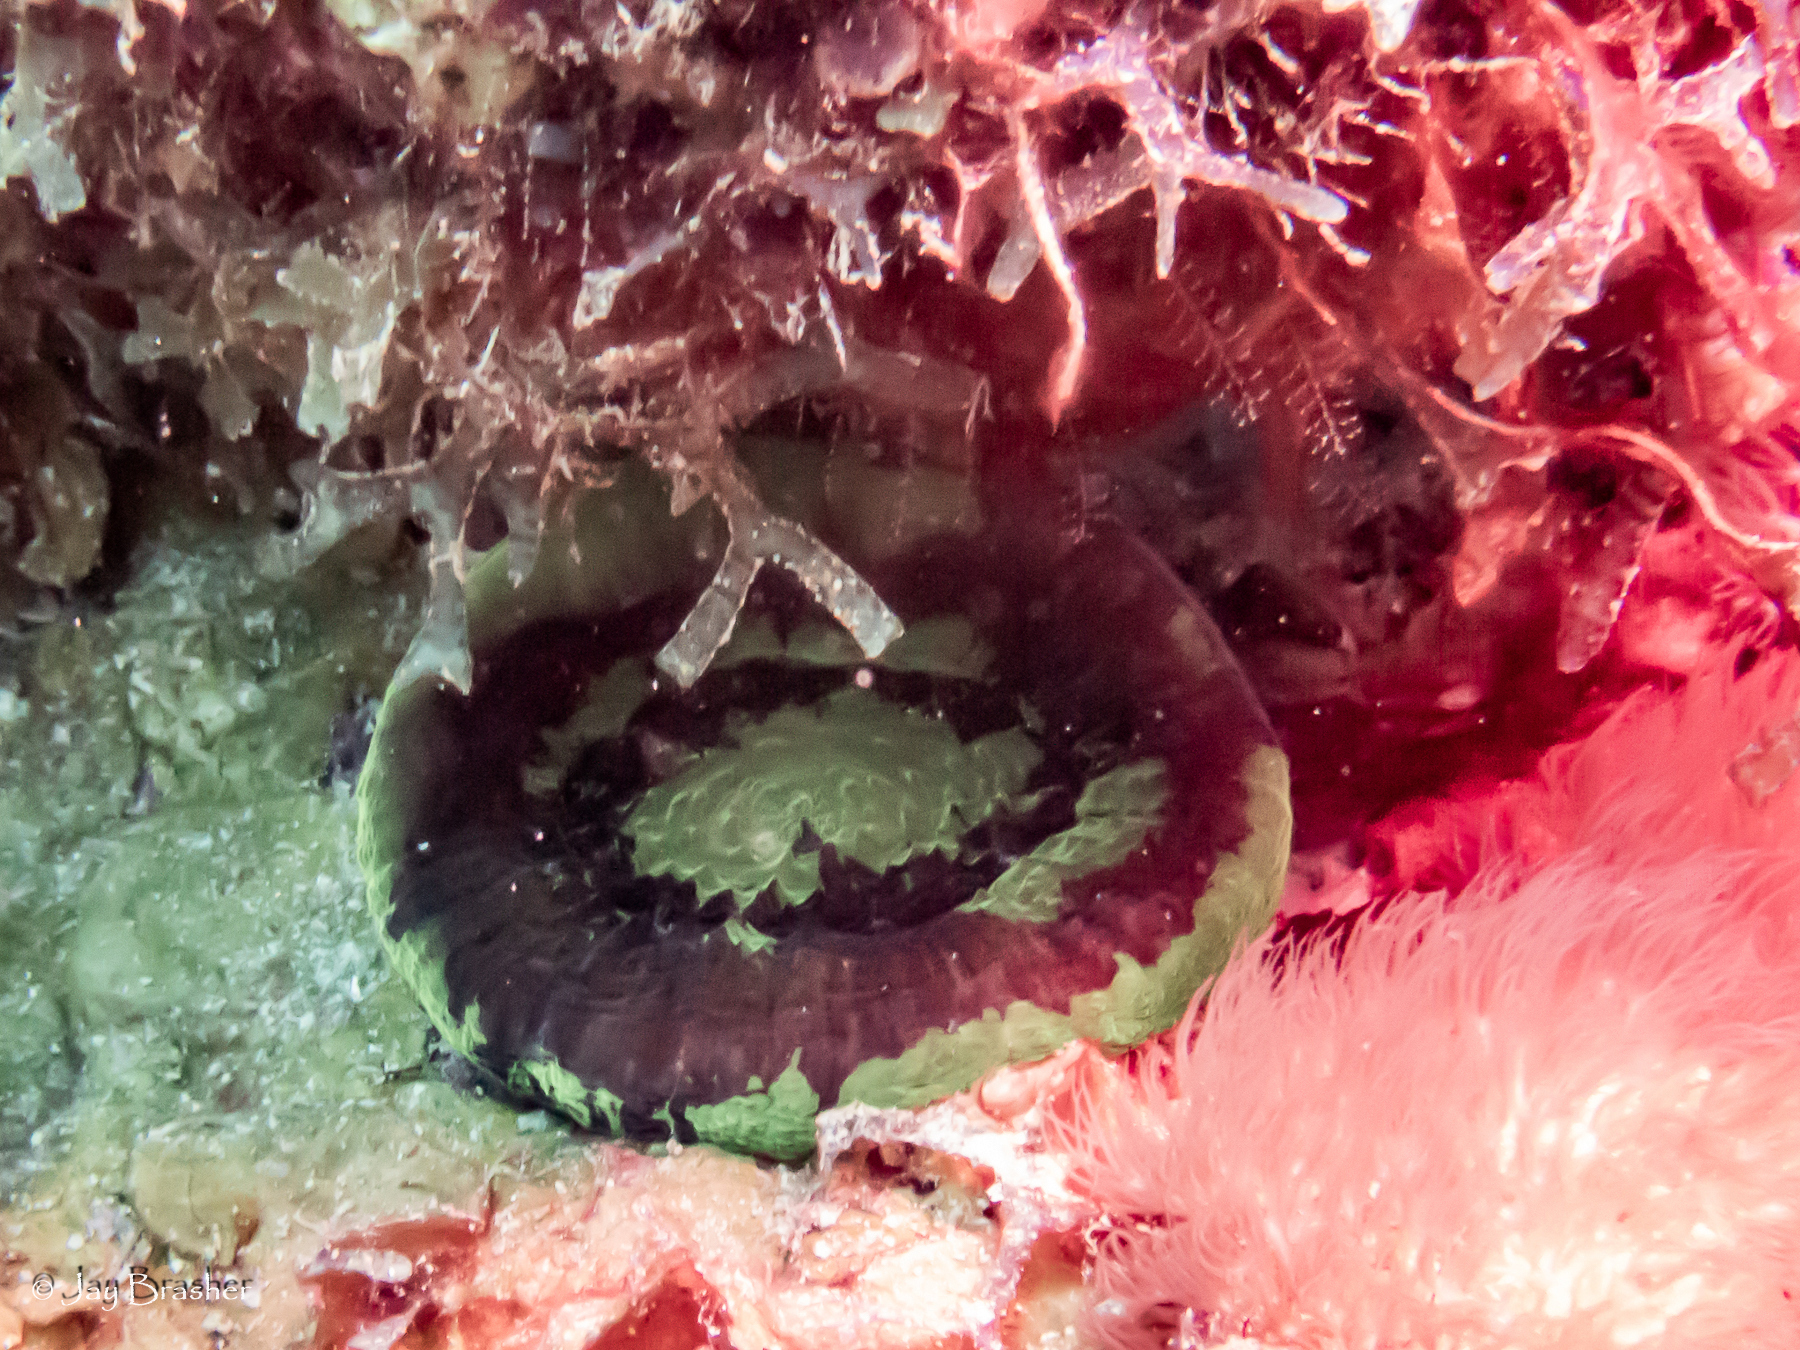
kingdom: Animalia
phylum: Cnidaria
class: Anthozoa
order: Scleractinia
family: Faviidae
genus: Scolymia
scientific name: Scolymia cubensis
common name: Artichoke coral
